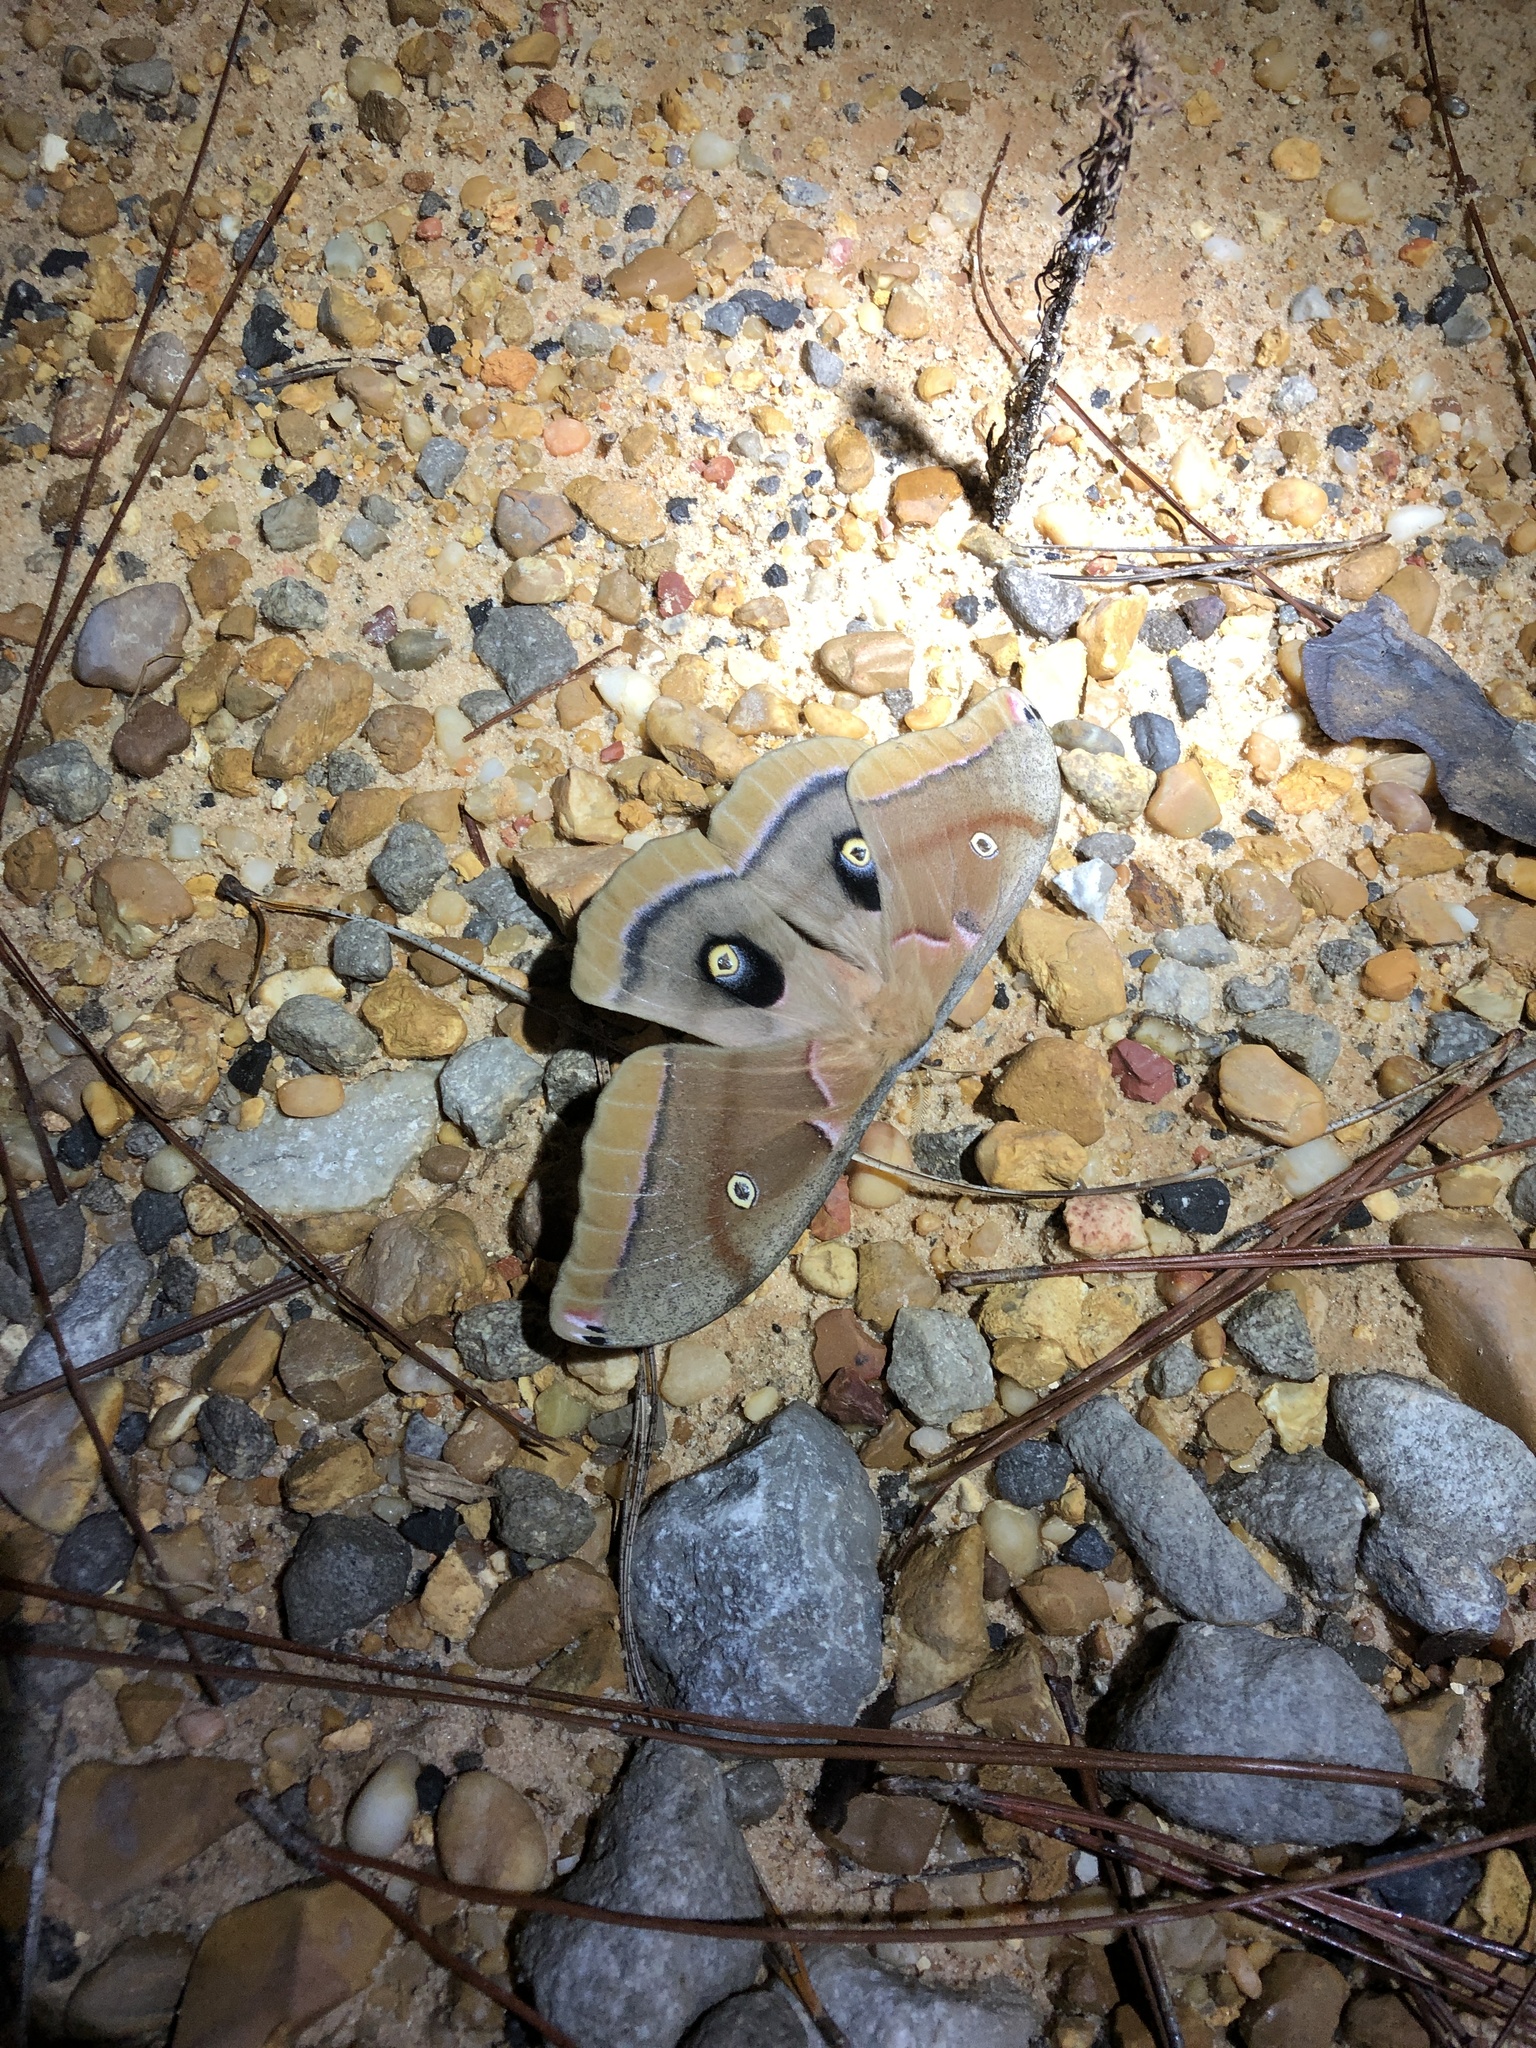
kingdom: Animalia
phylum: Arthropoda
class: Insecta
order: Lepidoptera
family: Saturniidae
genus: Antheraea
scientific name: Antheraea polyphemus
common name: Polyphemus moth
